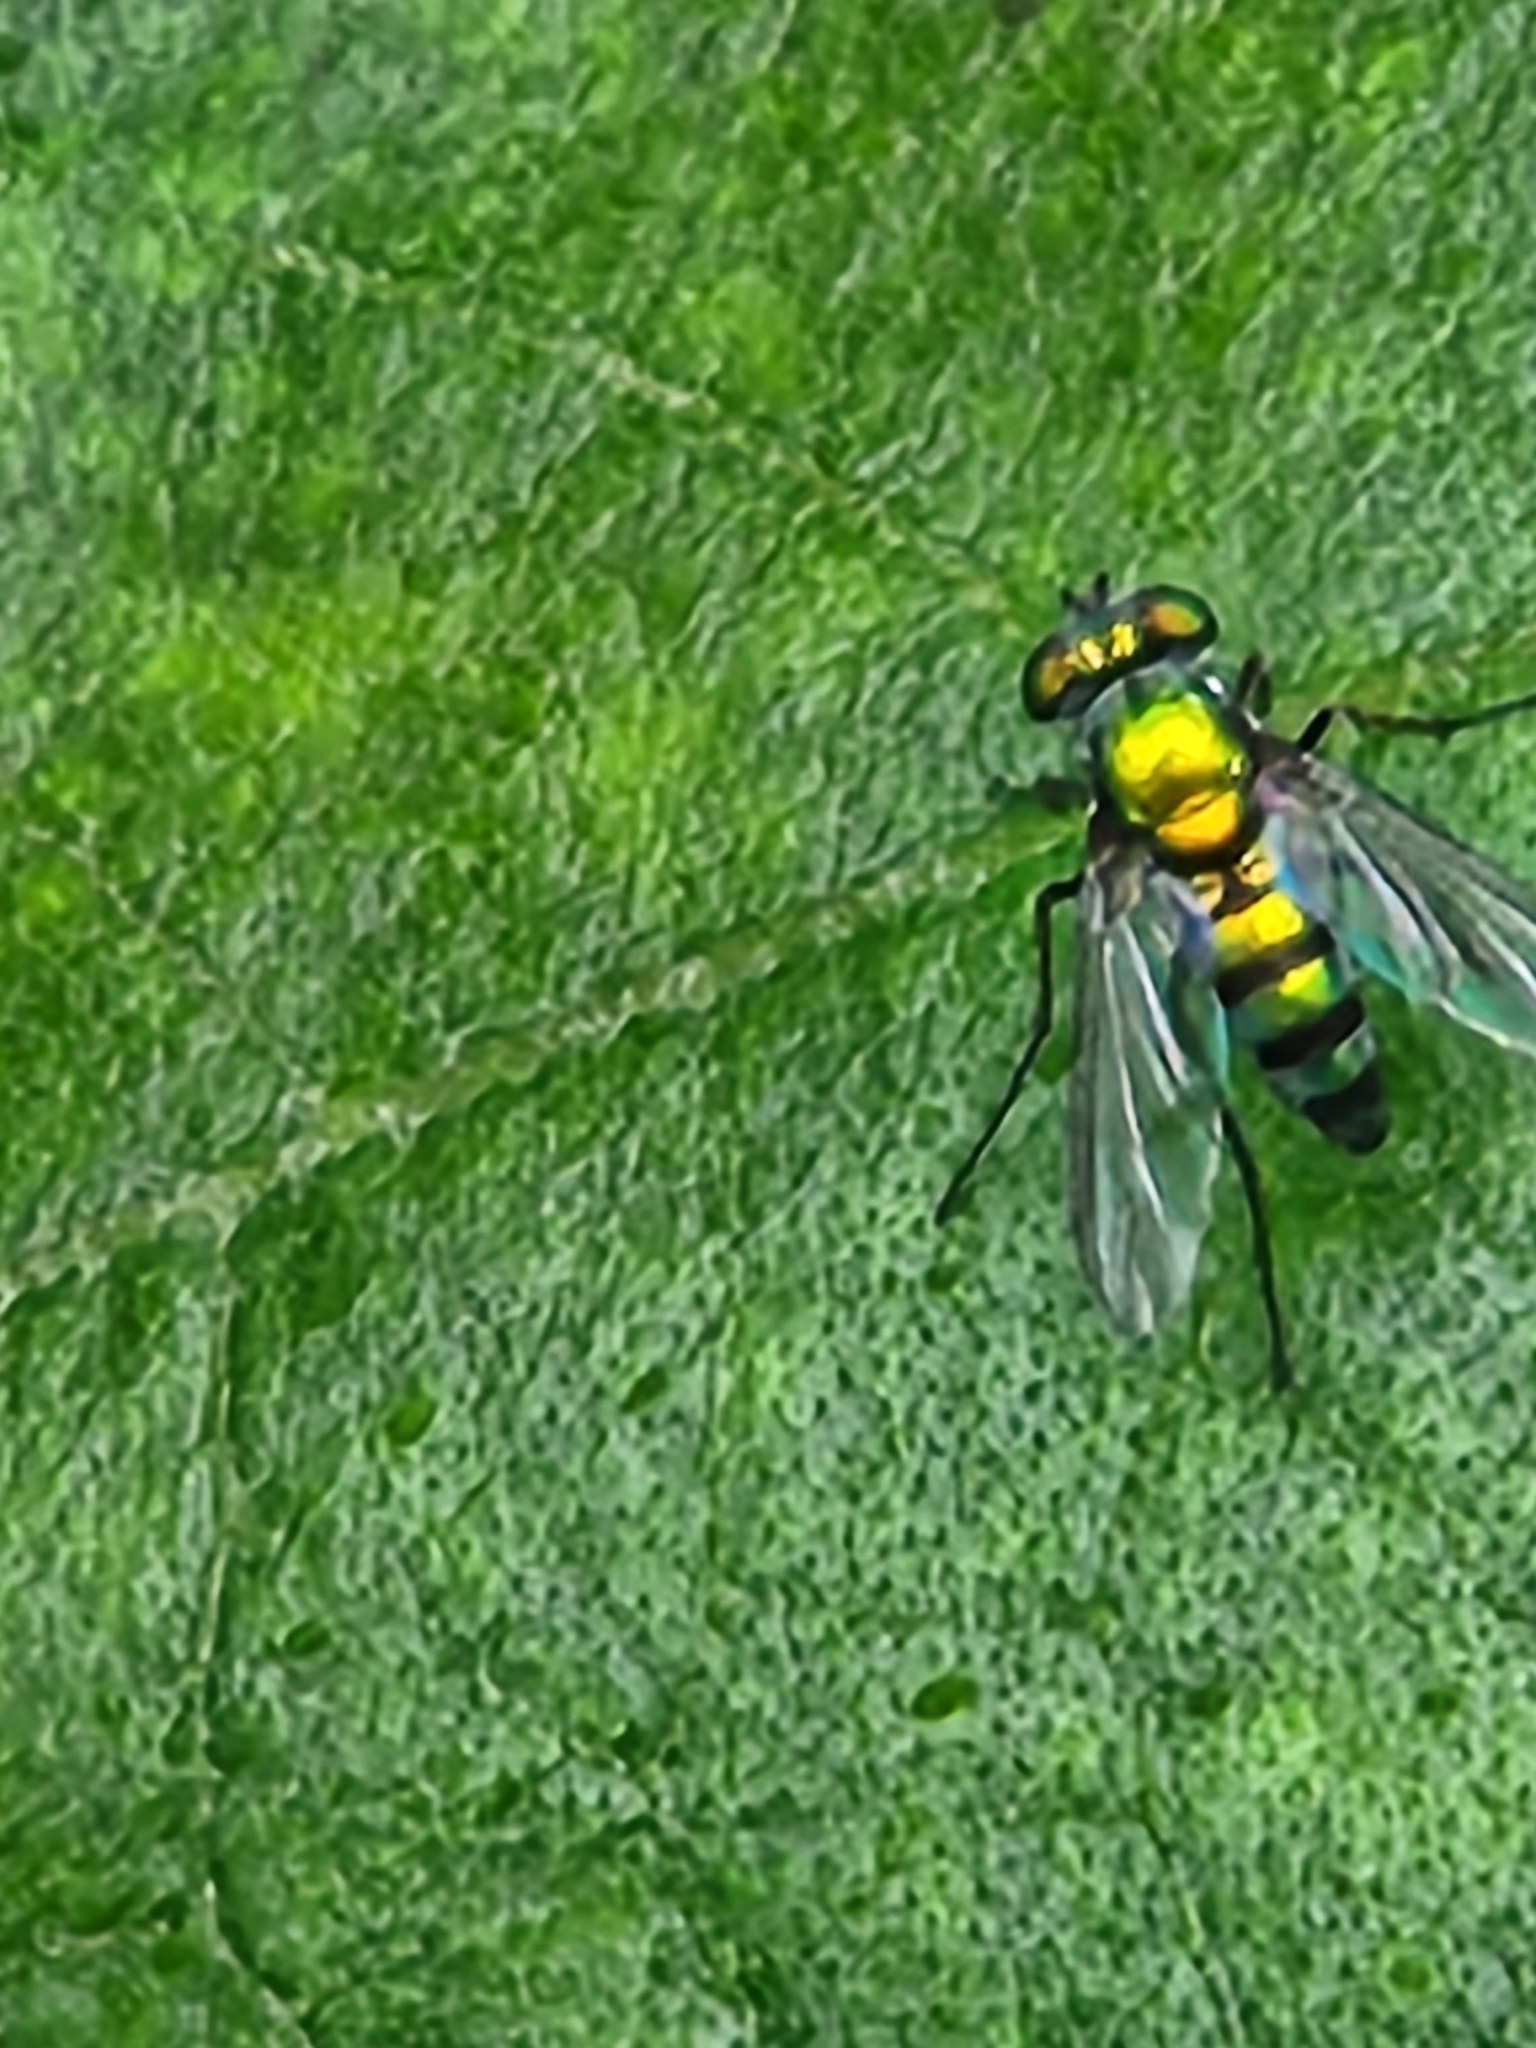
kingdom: Animalia
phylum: Arthropoda
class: Insecta
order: Diptera
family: Dolichopodidae
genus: Condylostylus
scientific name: Condylostylus longicornis
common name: Long-legged fly
